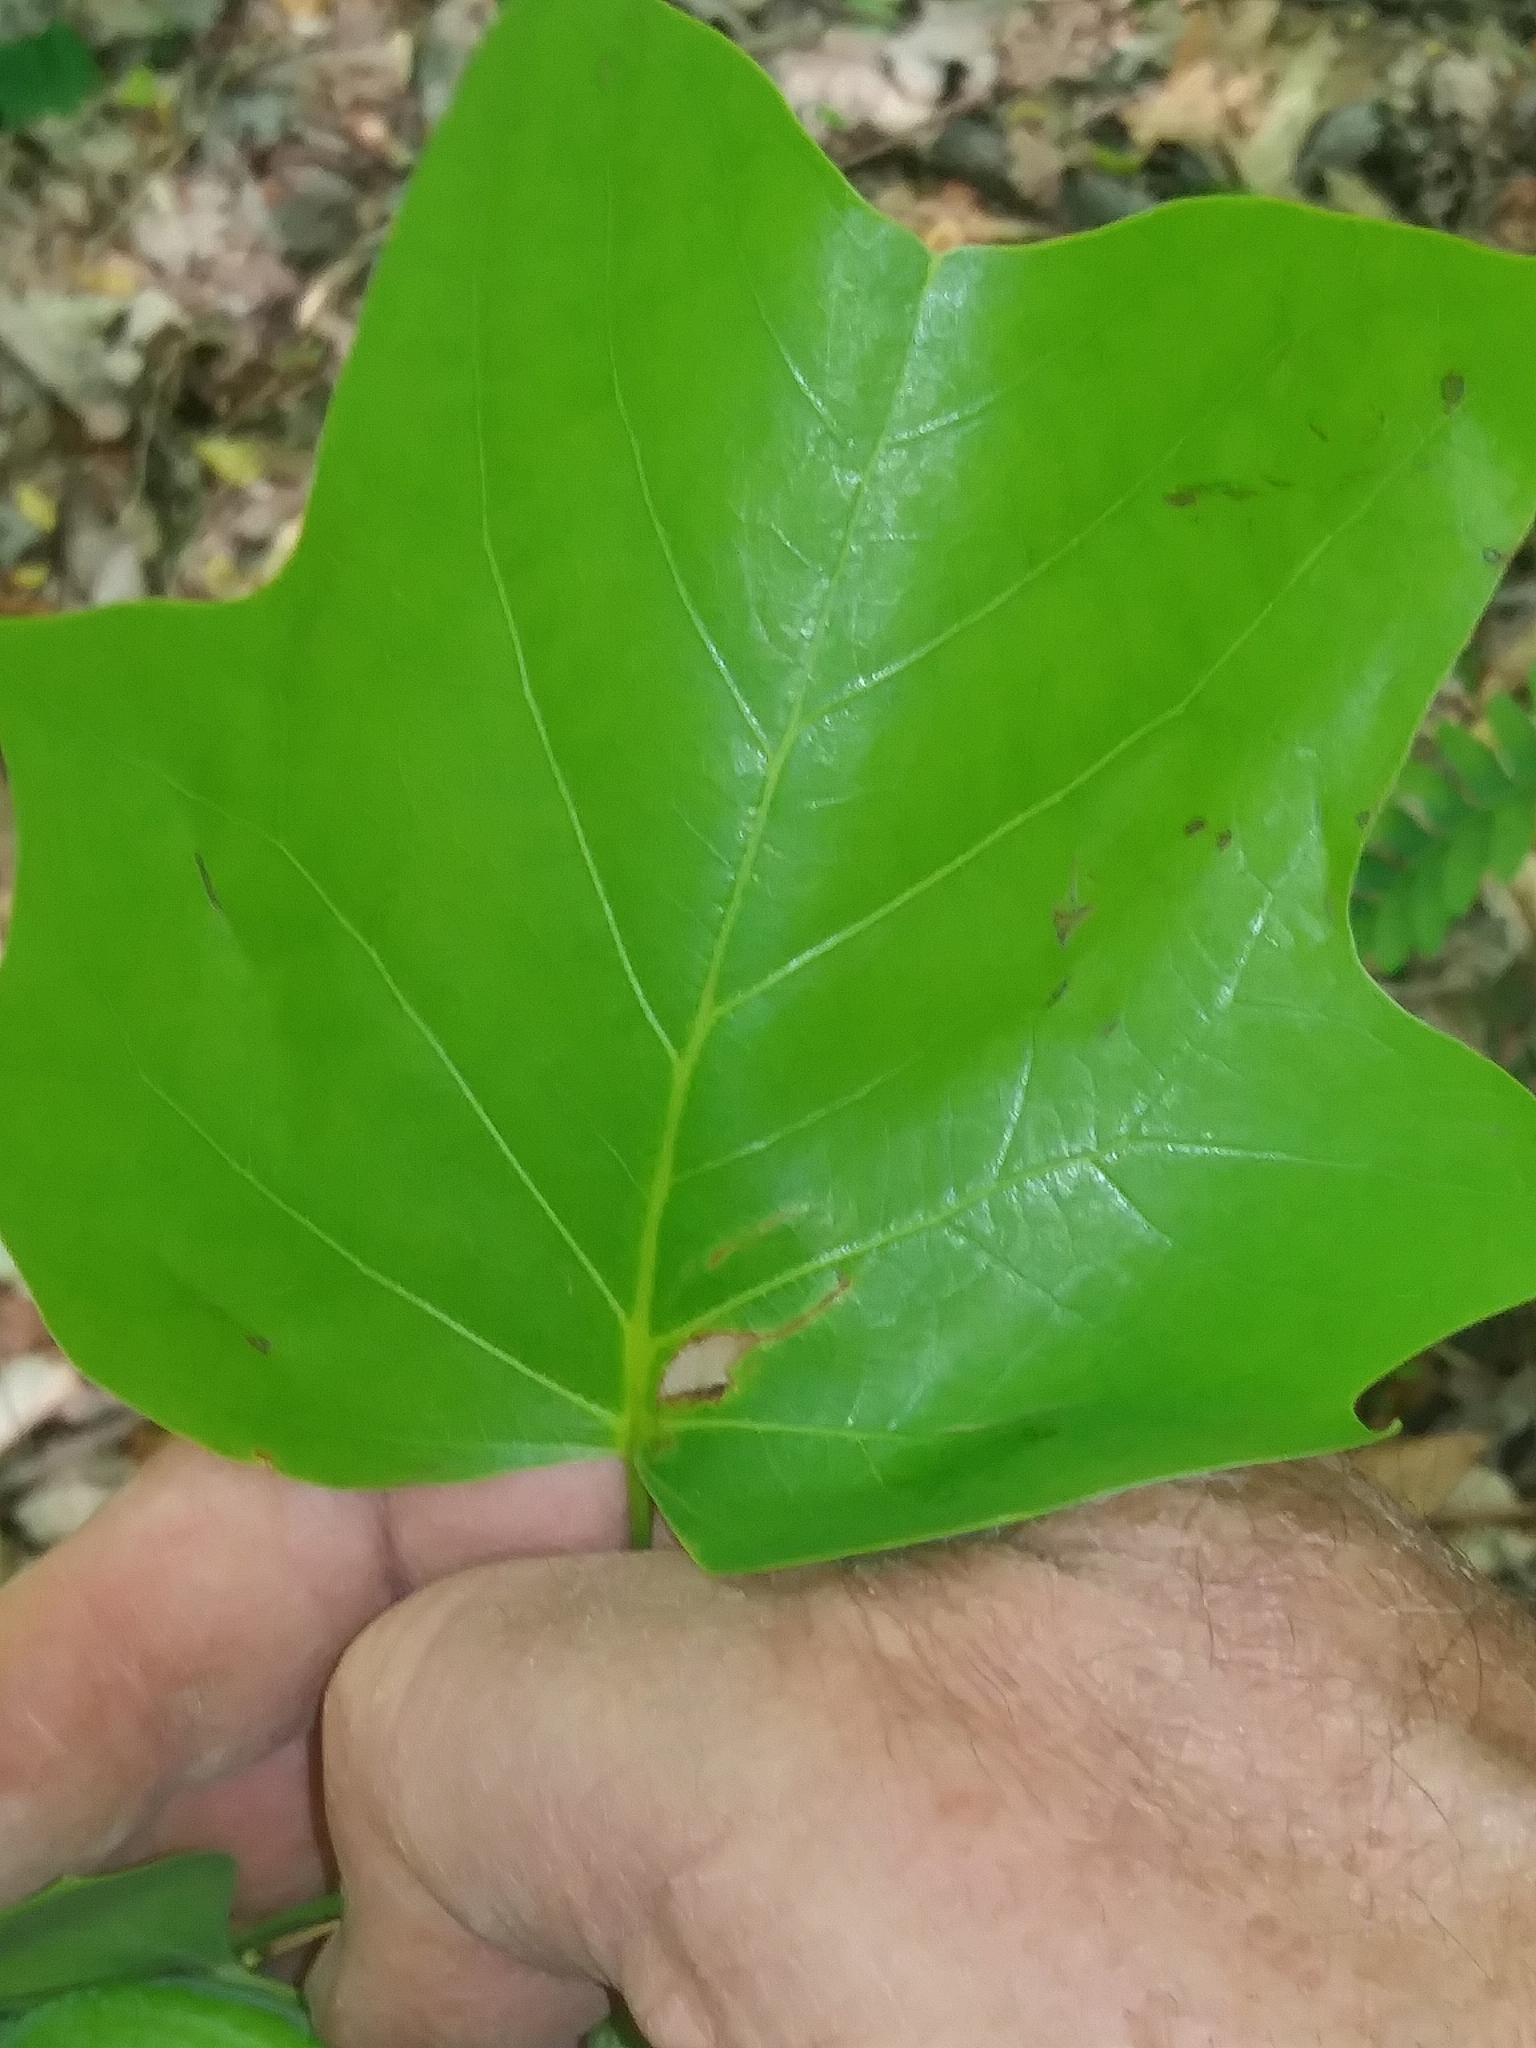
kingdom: Plantae
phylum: Tracheophyta
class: Magnoliopsida
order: Magnoliales
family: Magnoliaceae
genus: Liriodendron
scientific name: Liriodendron tulipifera
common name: Tulip tree
